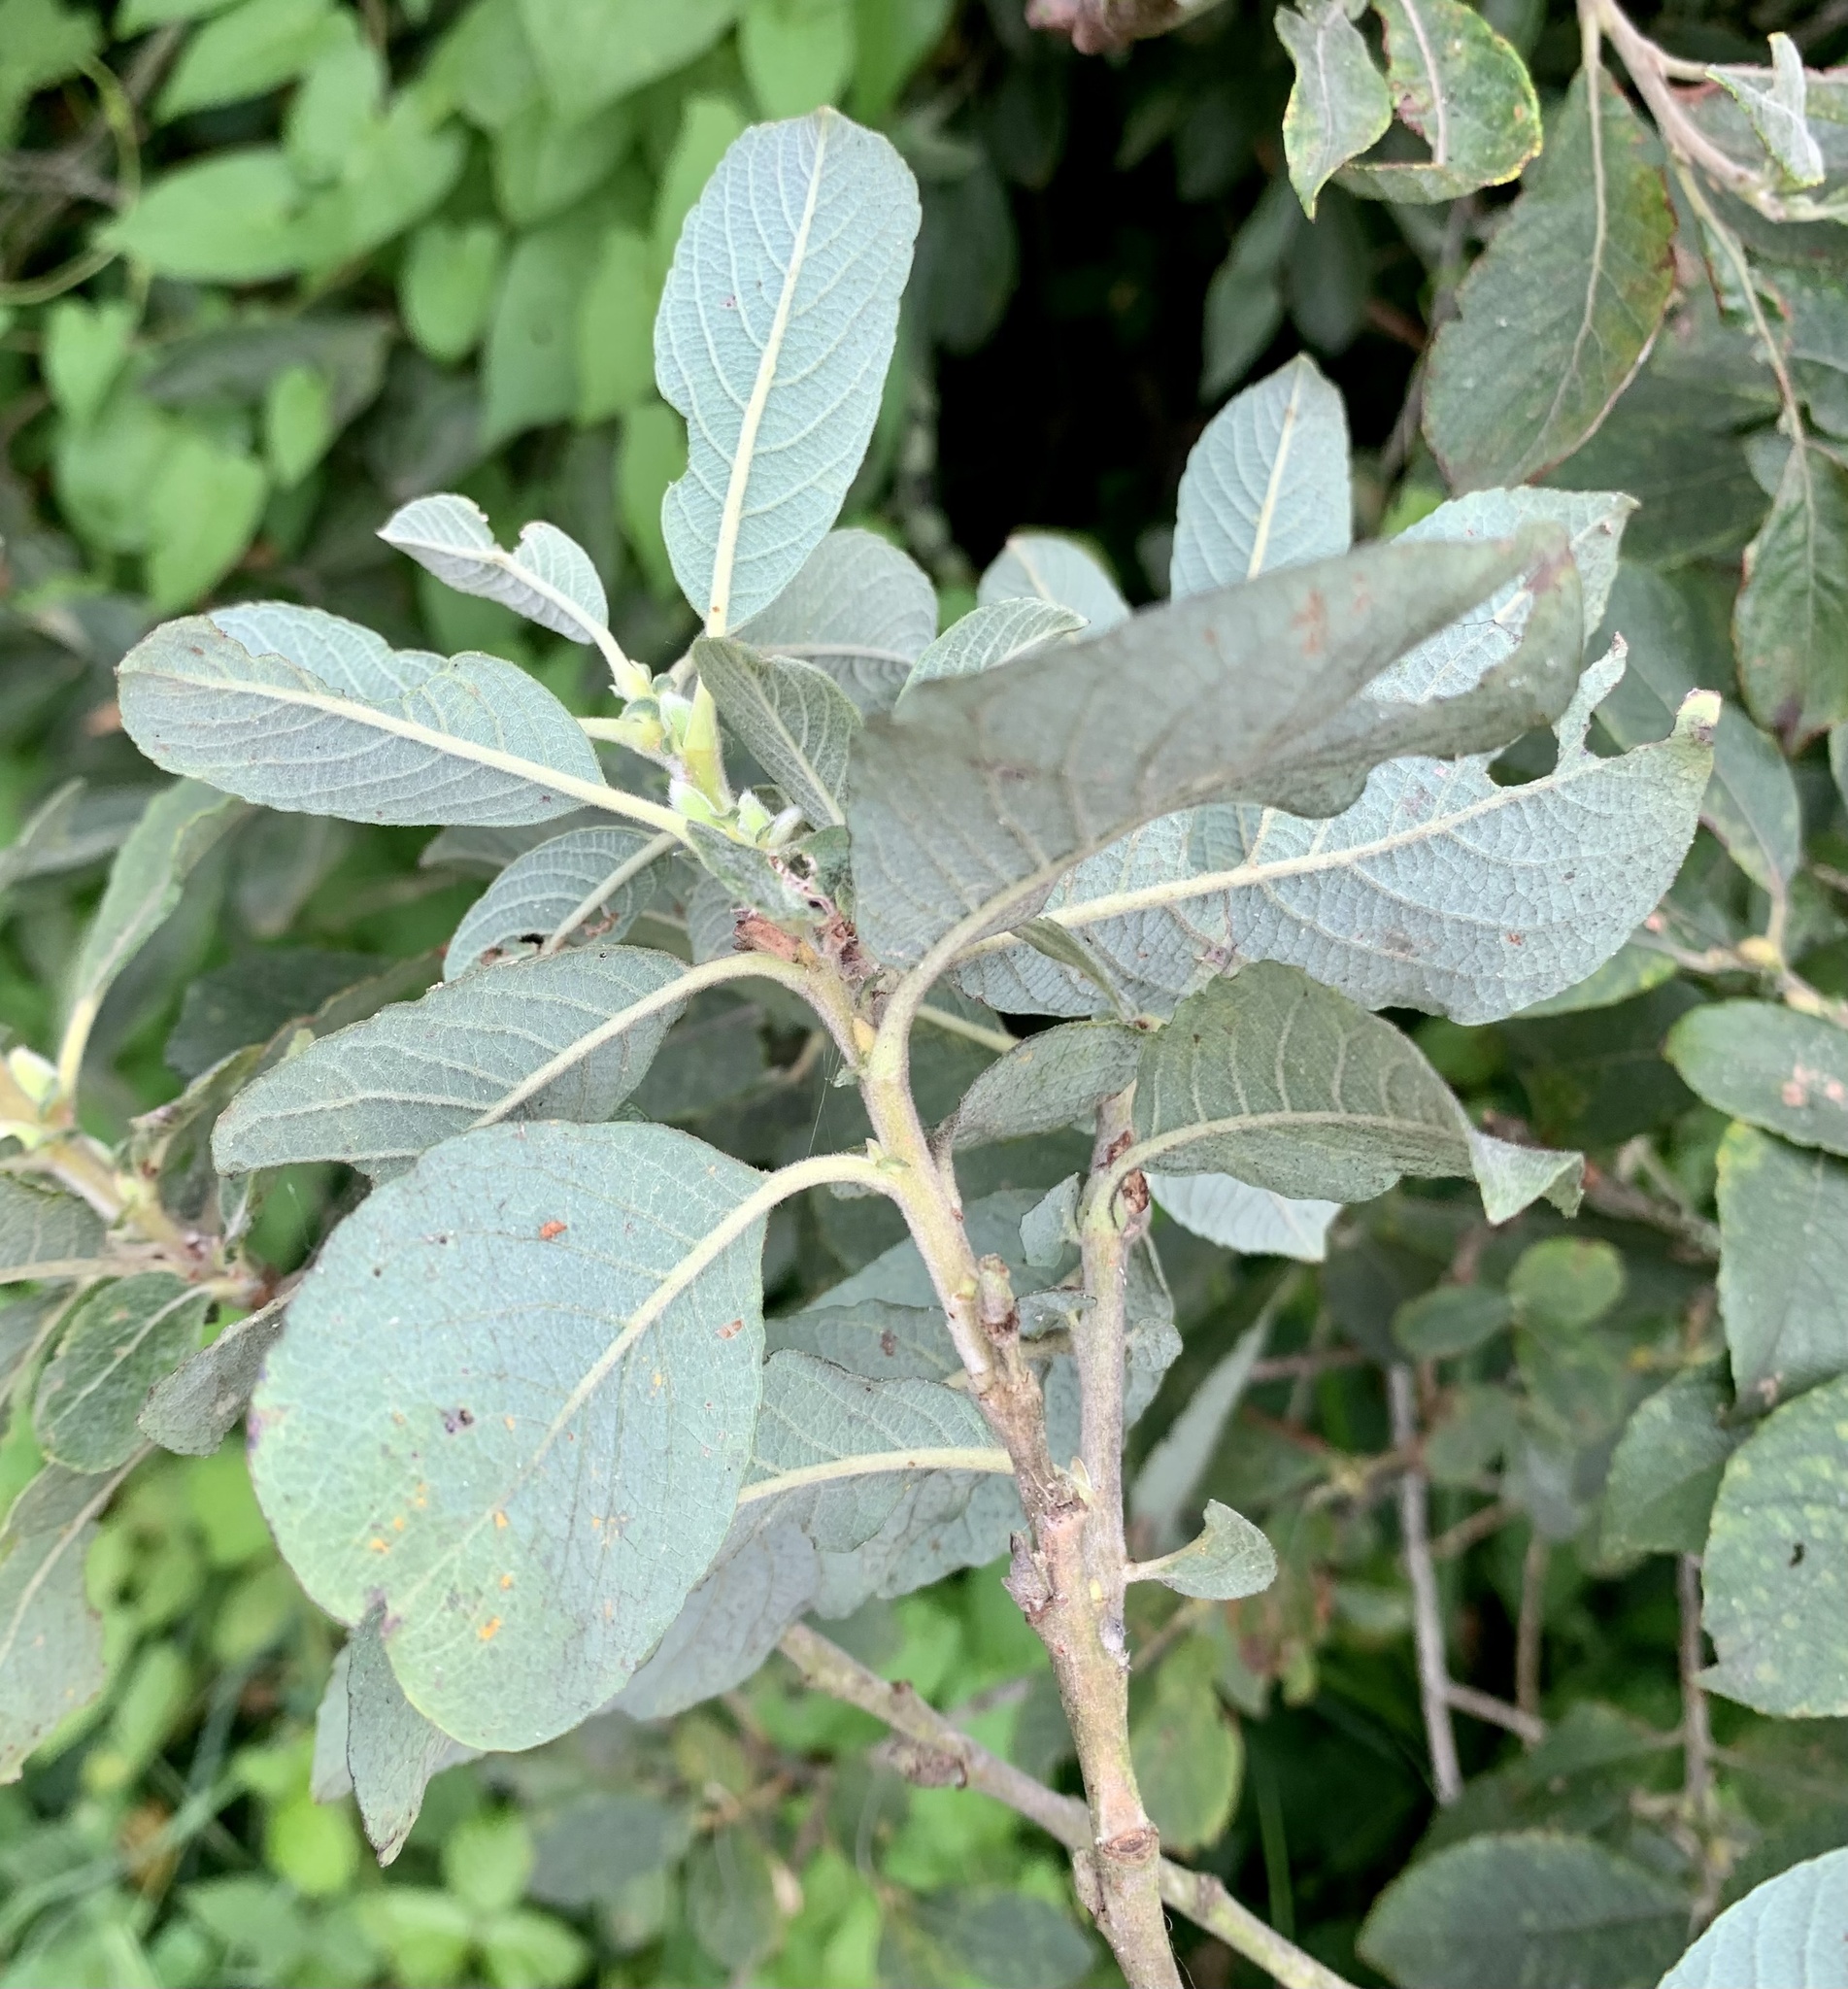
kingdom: Plantae
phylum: Tracheophyta
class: Magnoliopsida
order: Malpighiales
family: Salicaceae
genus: Salix
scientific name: Salix cinerea
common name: Common sallow
